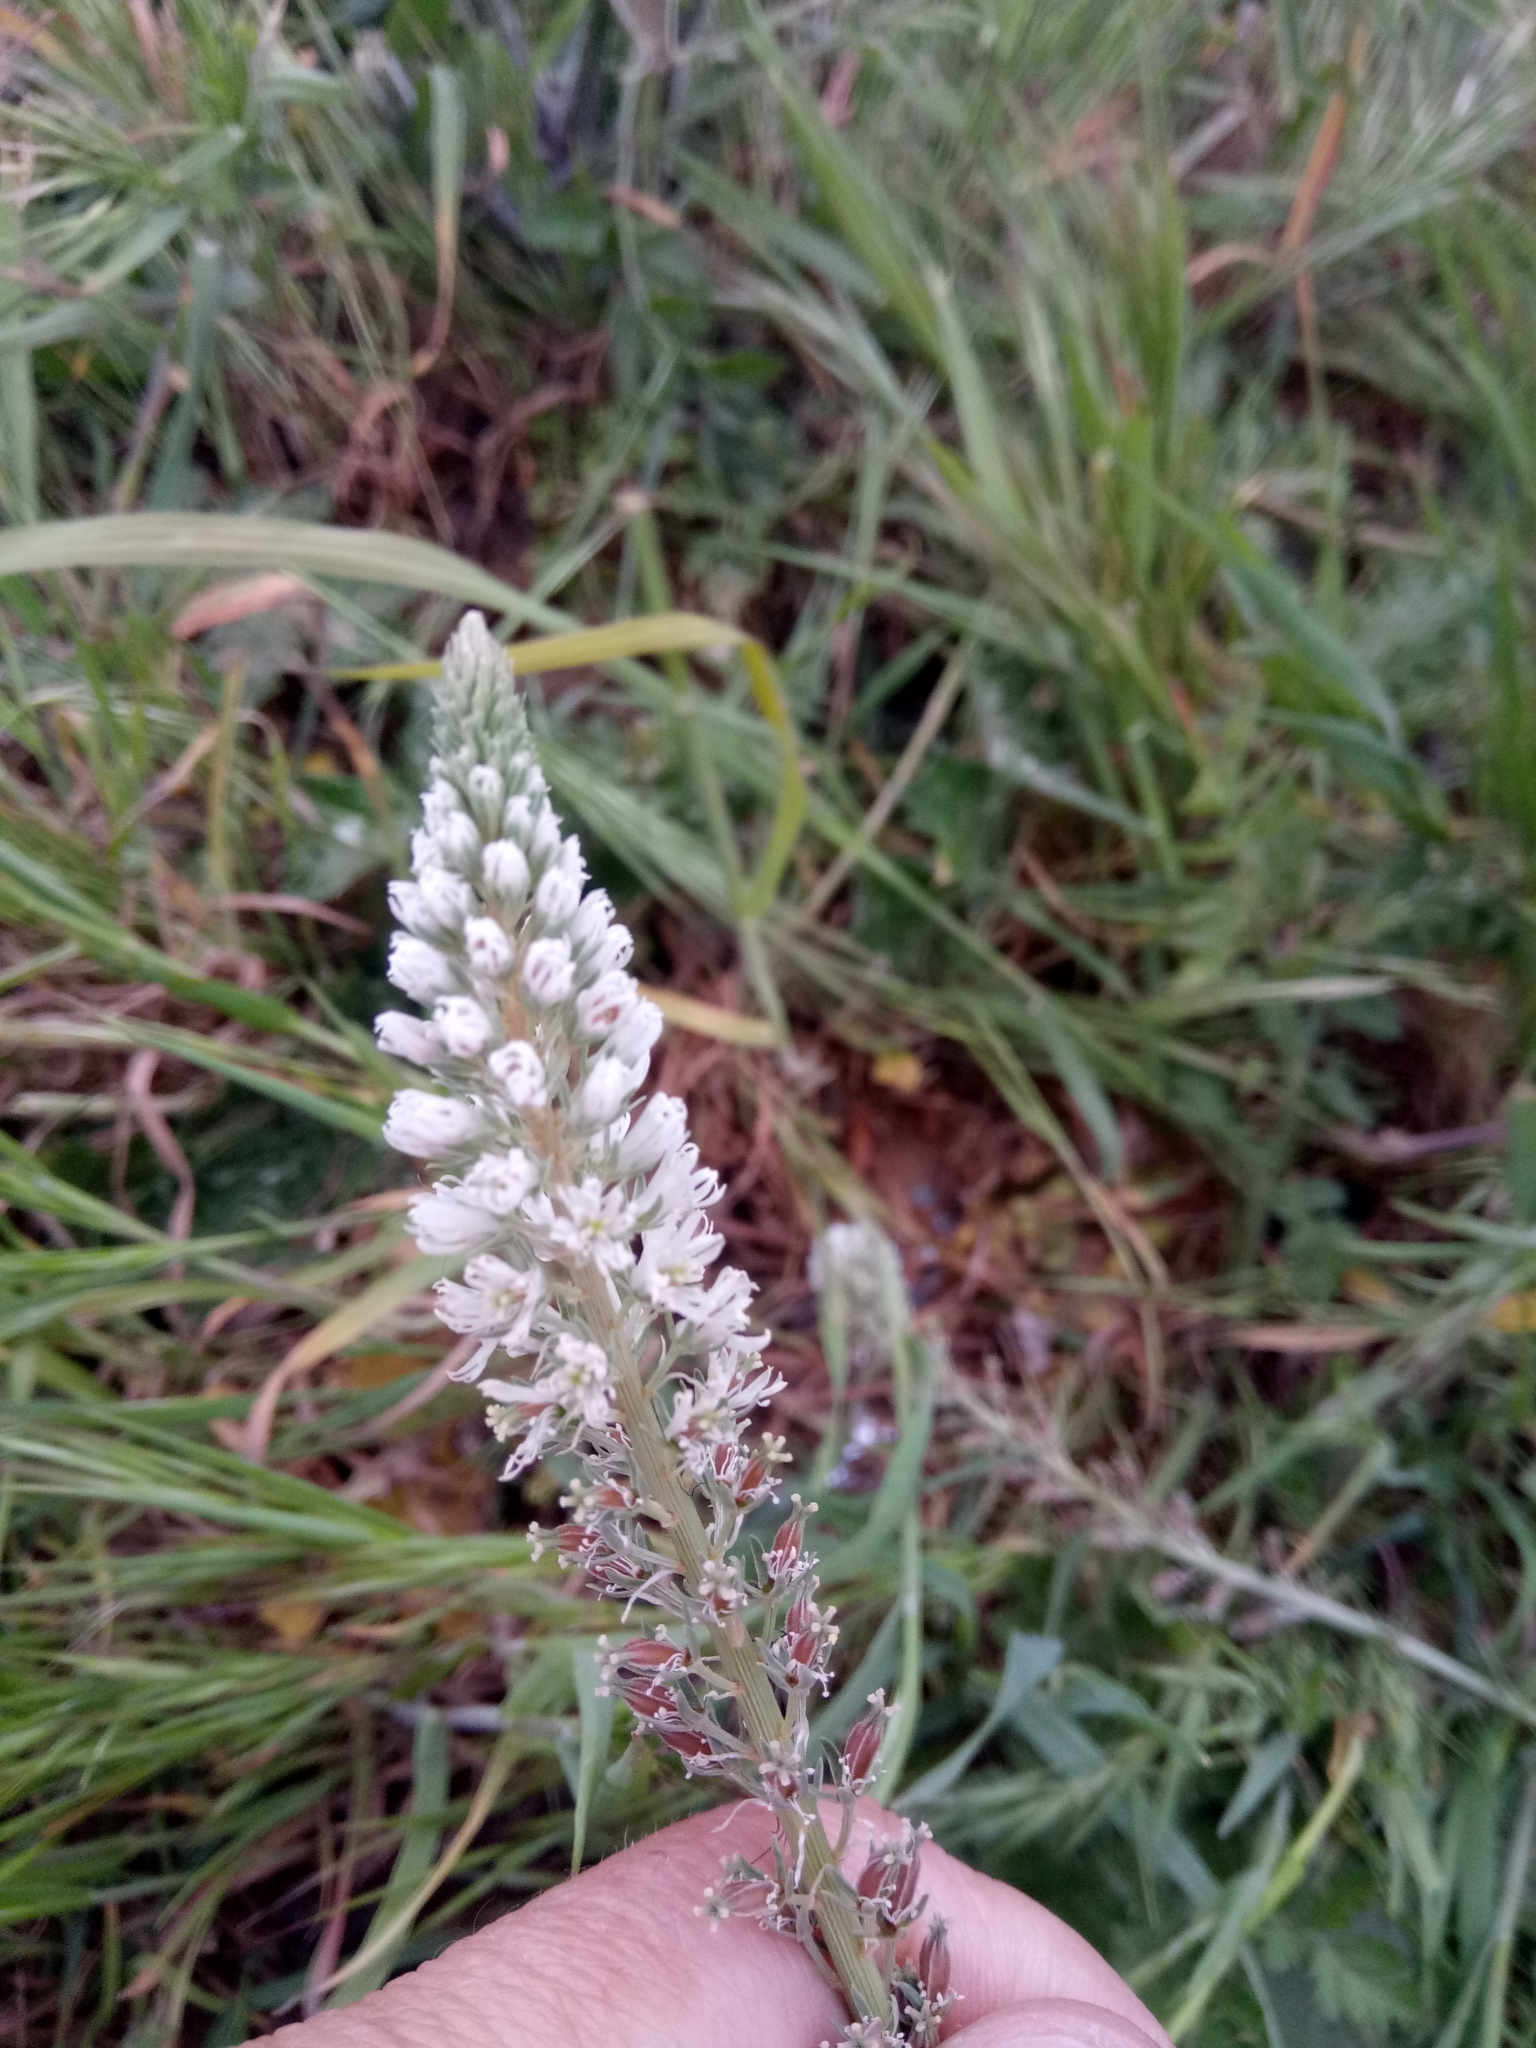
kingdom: Plantae
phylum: Tracheophyta
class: Magnoliopsida
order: Brassicales
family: Resedaceae
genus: Reseda
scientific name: Reseda alba
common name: White mignonette
